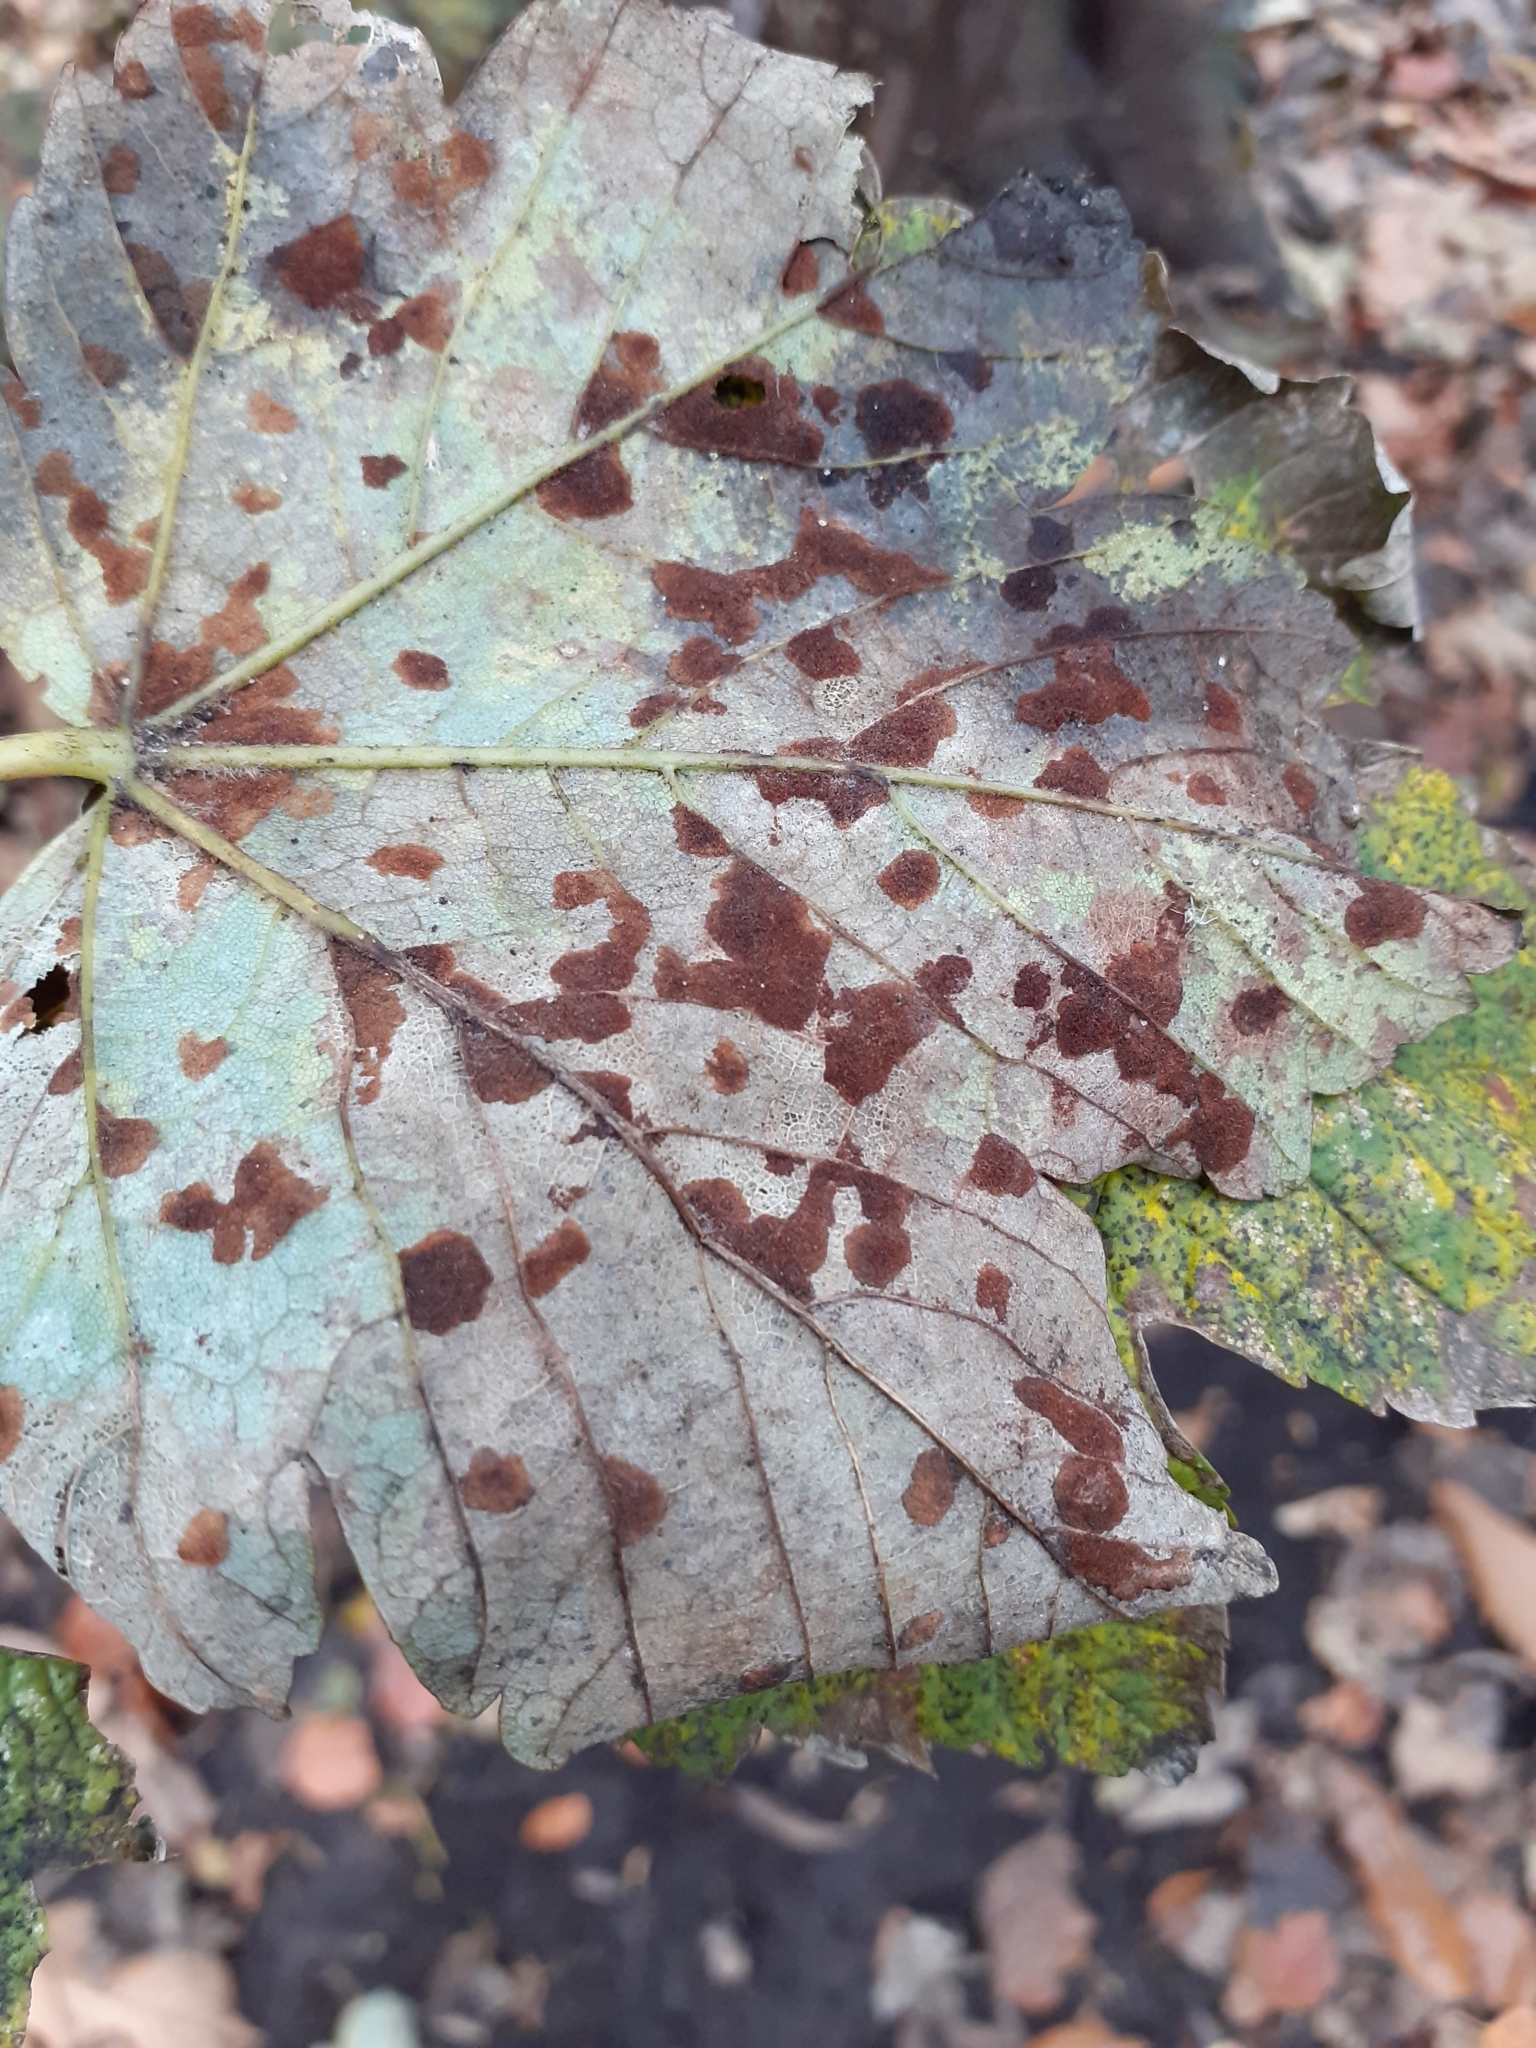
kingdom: Animalia
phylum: Arthropoda
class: Arachnida
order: Trombidiformes
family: Eriophyidae
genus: Aceria
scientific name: Aceria pseudoplatani
